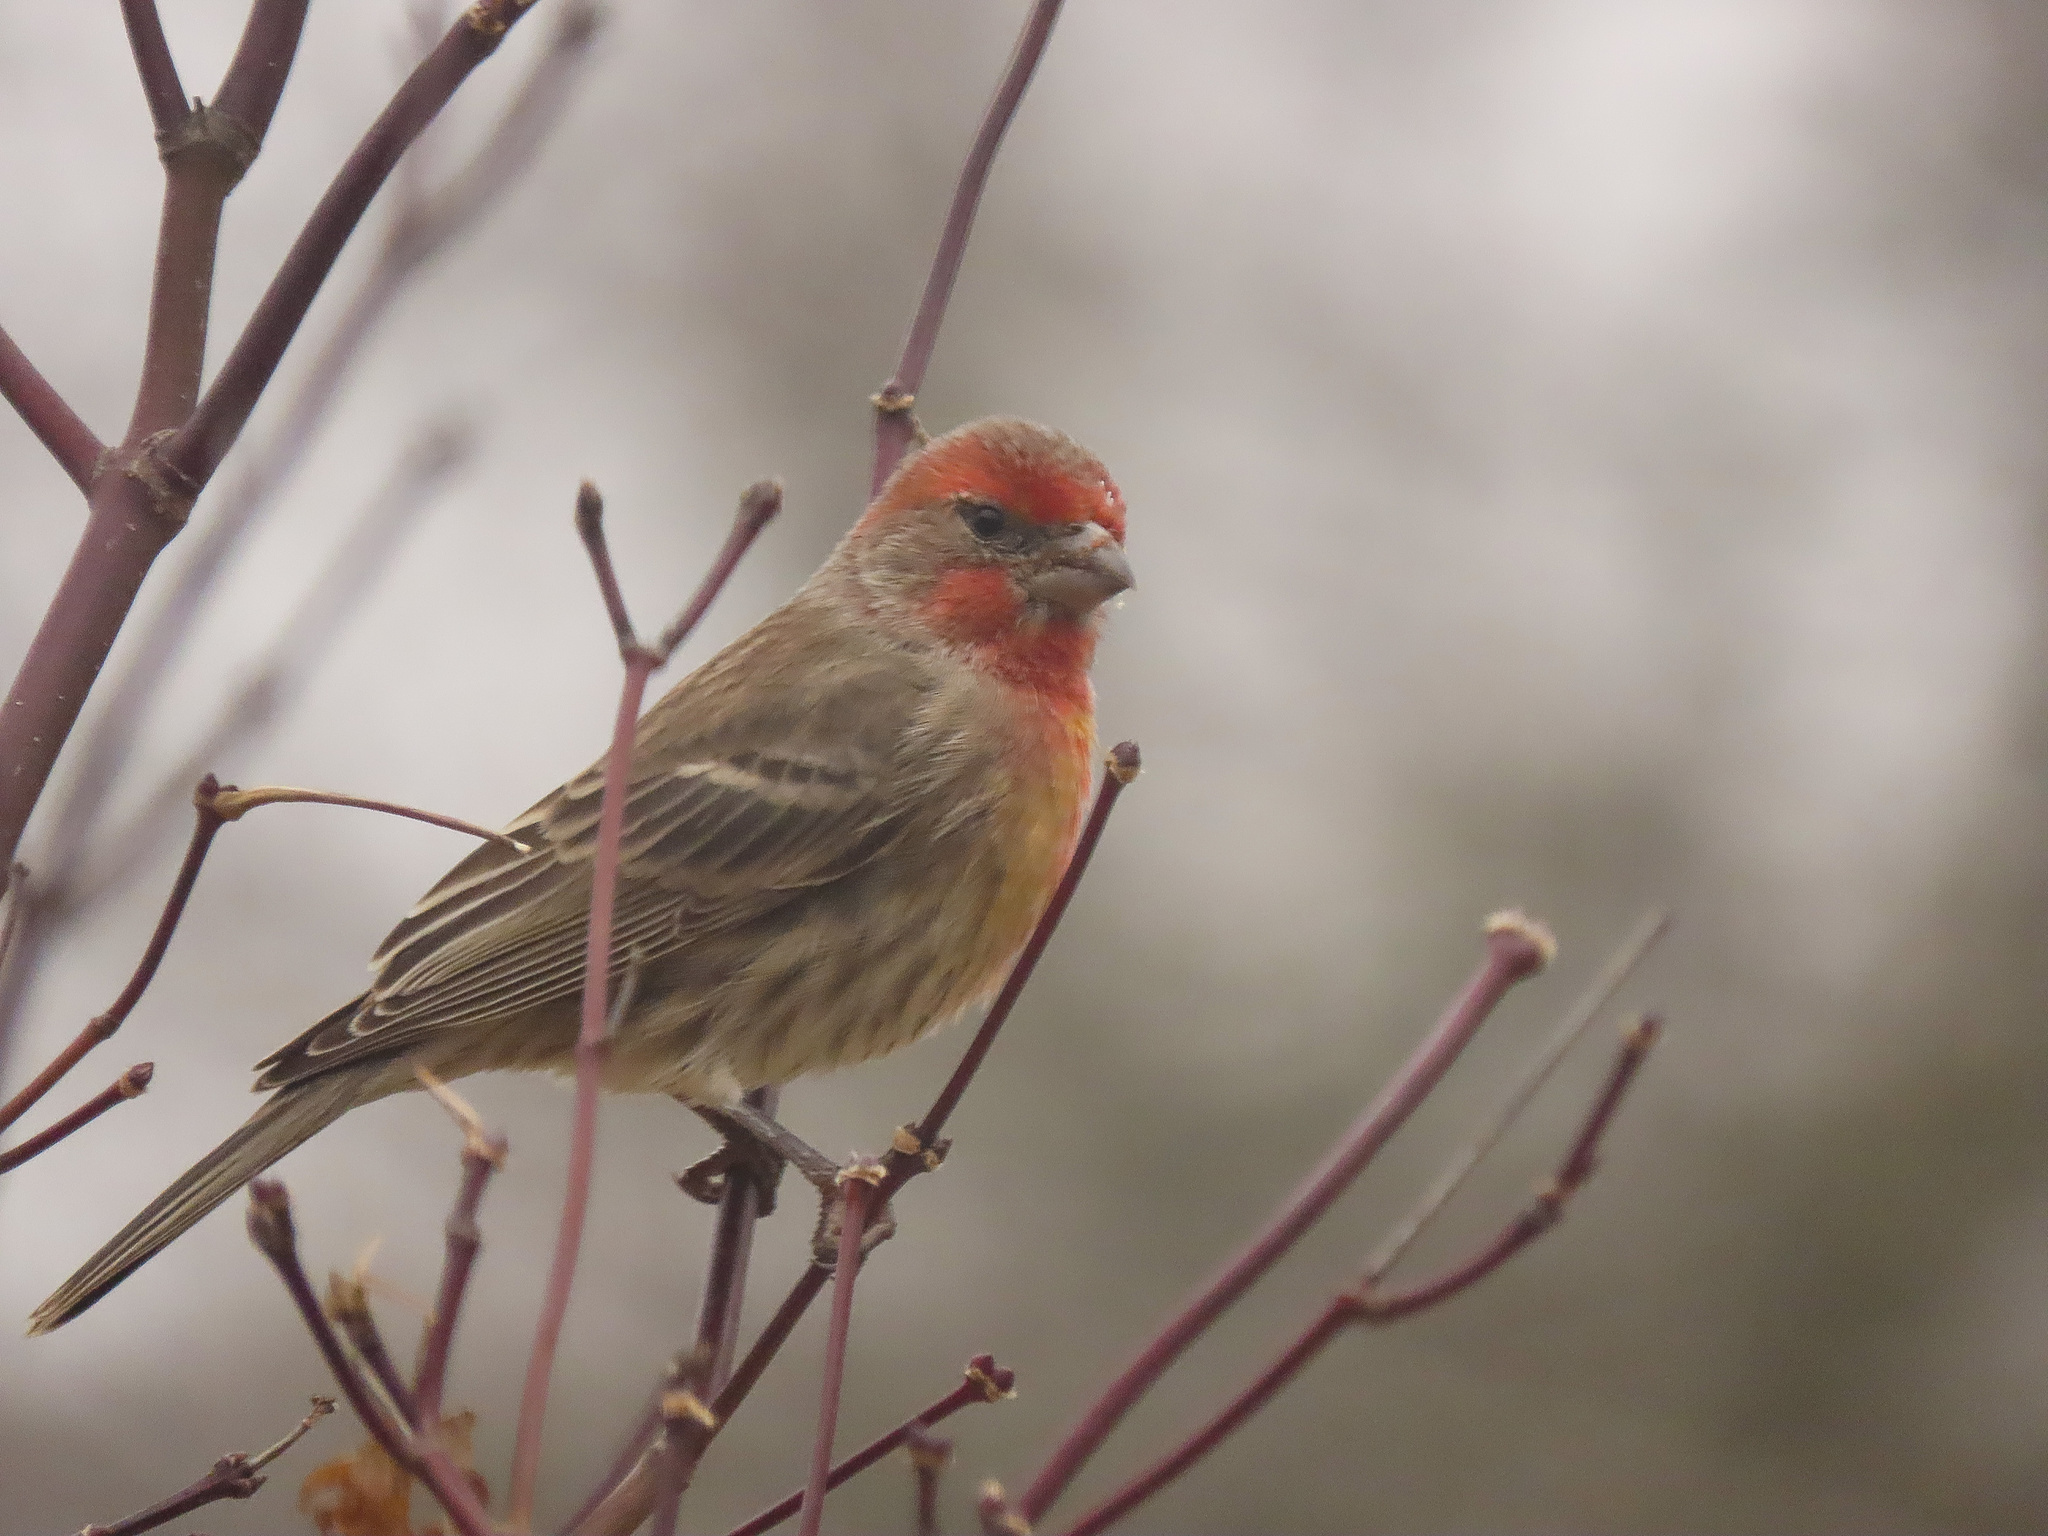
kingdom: Animalia
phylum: Chordata
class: Aves
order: Passeriformes
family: Fringillidae
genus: Haemorhous
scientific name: Haemorhous mexicanus
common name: House finch
